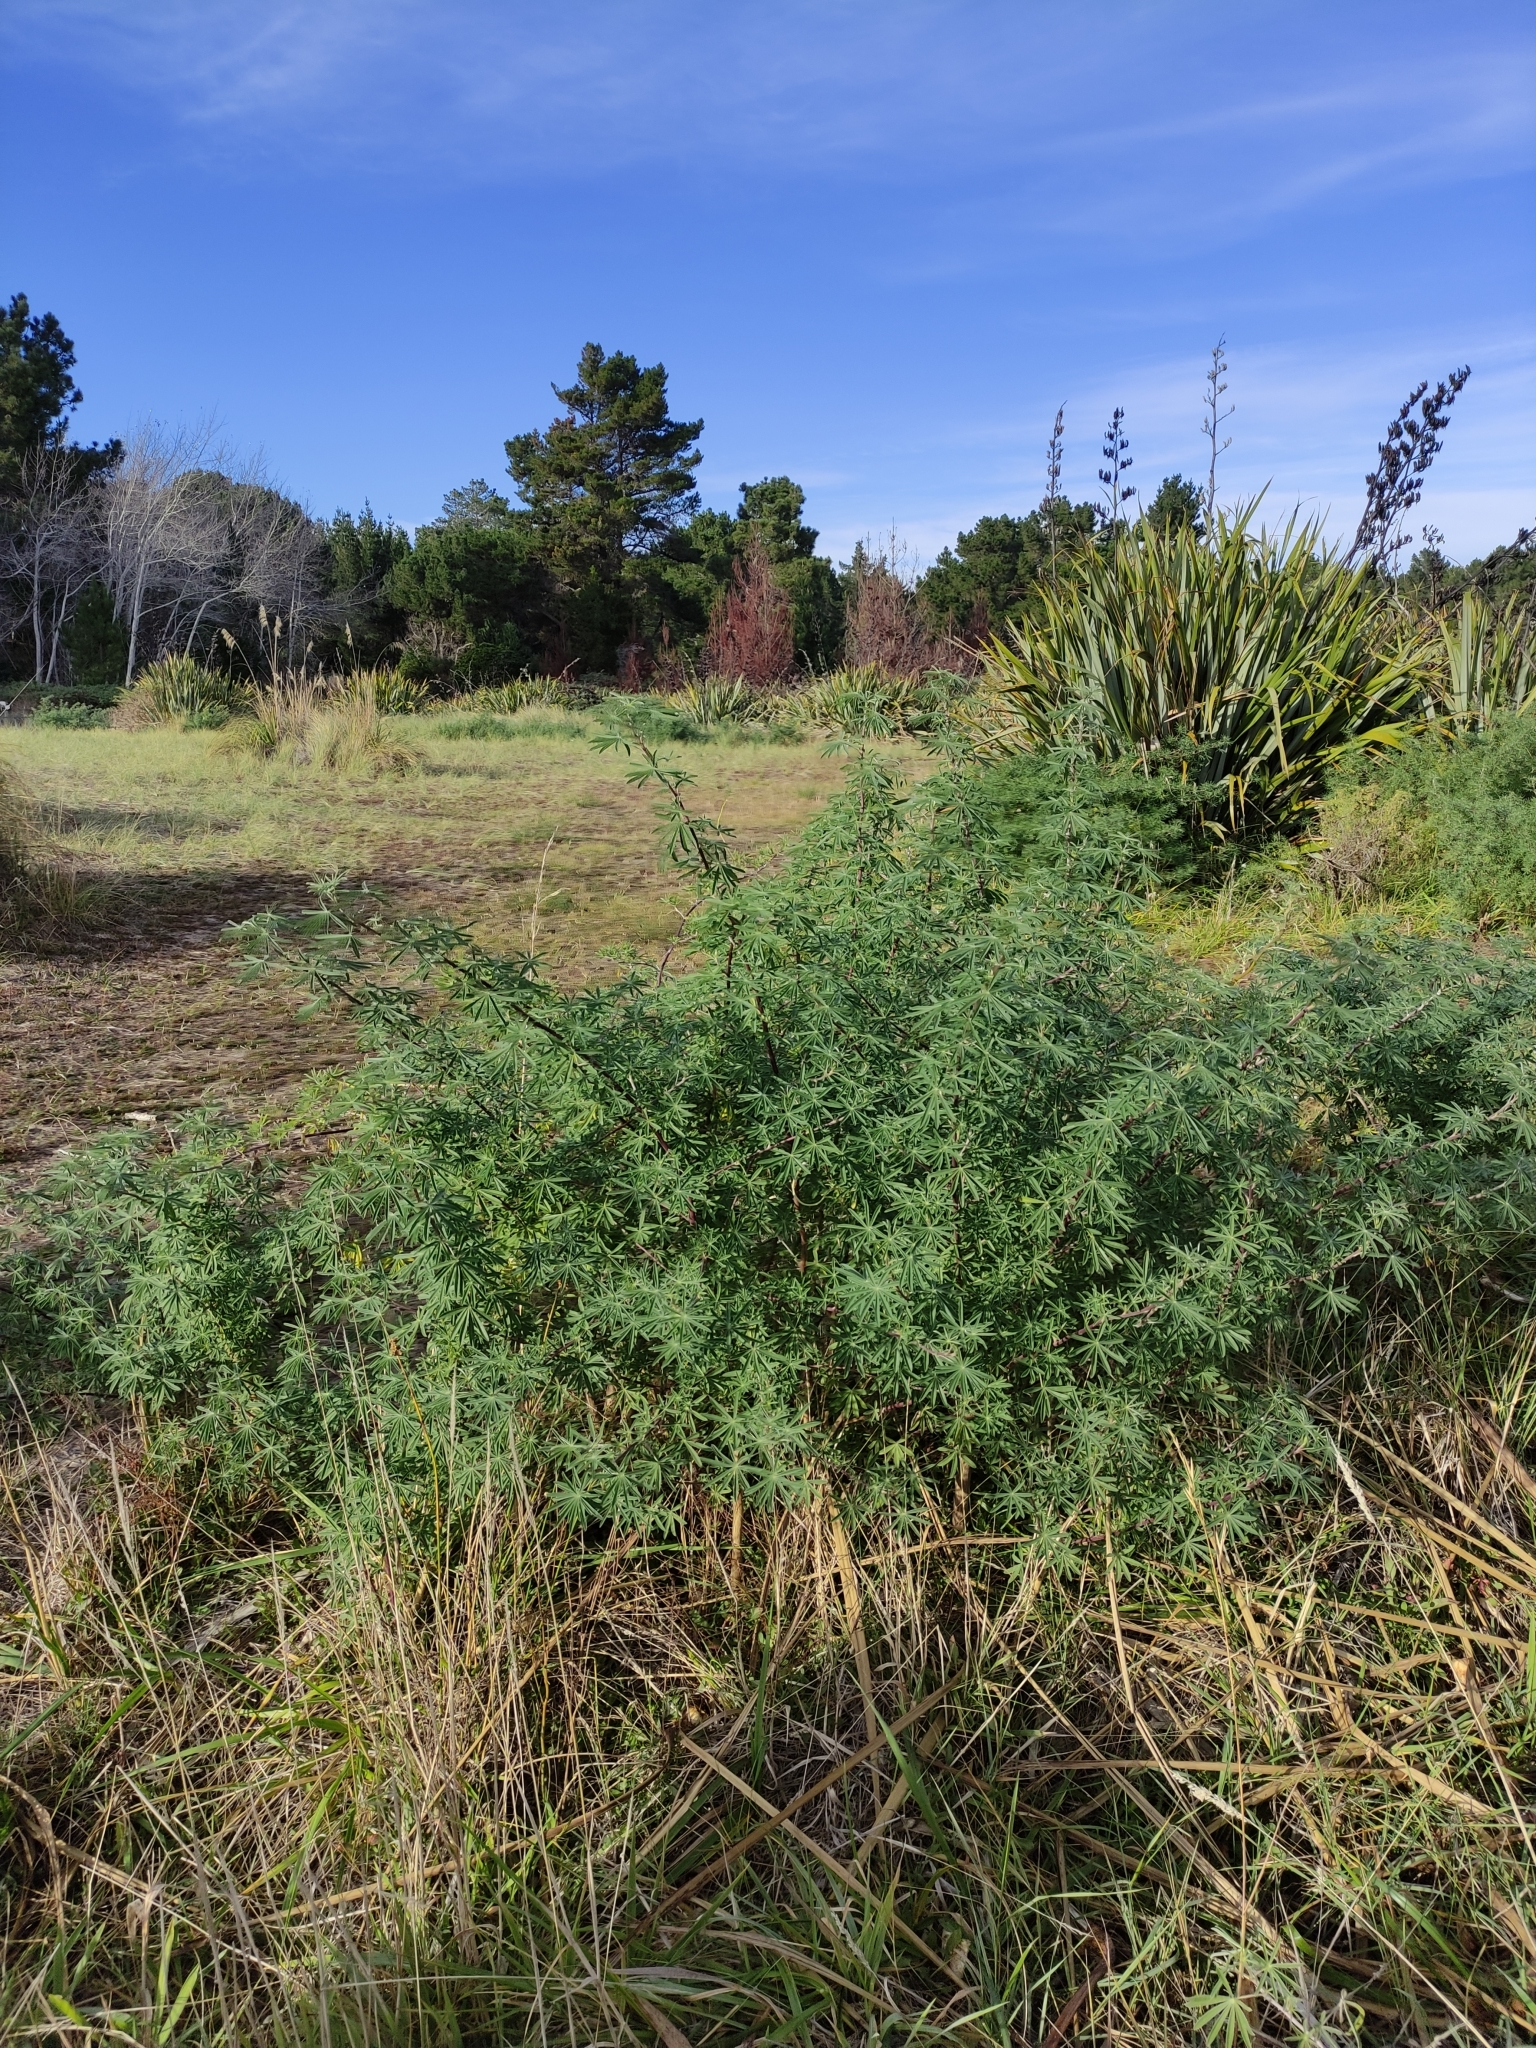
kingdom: Plantae
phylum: Tracheophyta
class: Magnoliopsida
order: Fabales
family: Fabaceae
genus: Lupinus
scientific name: Lupinus arboreus
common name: Yellow bush lupine
